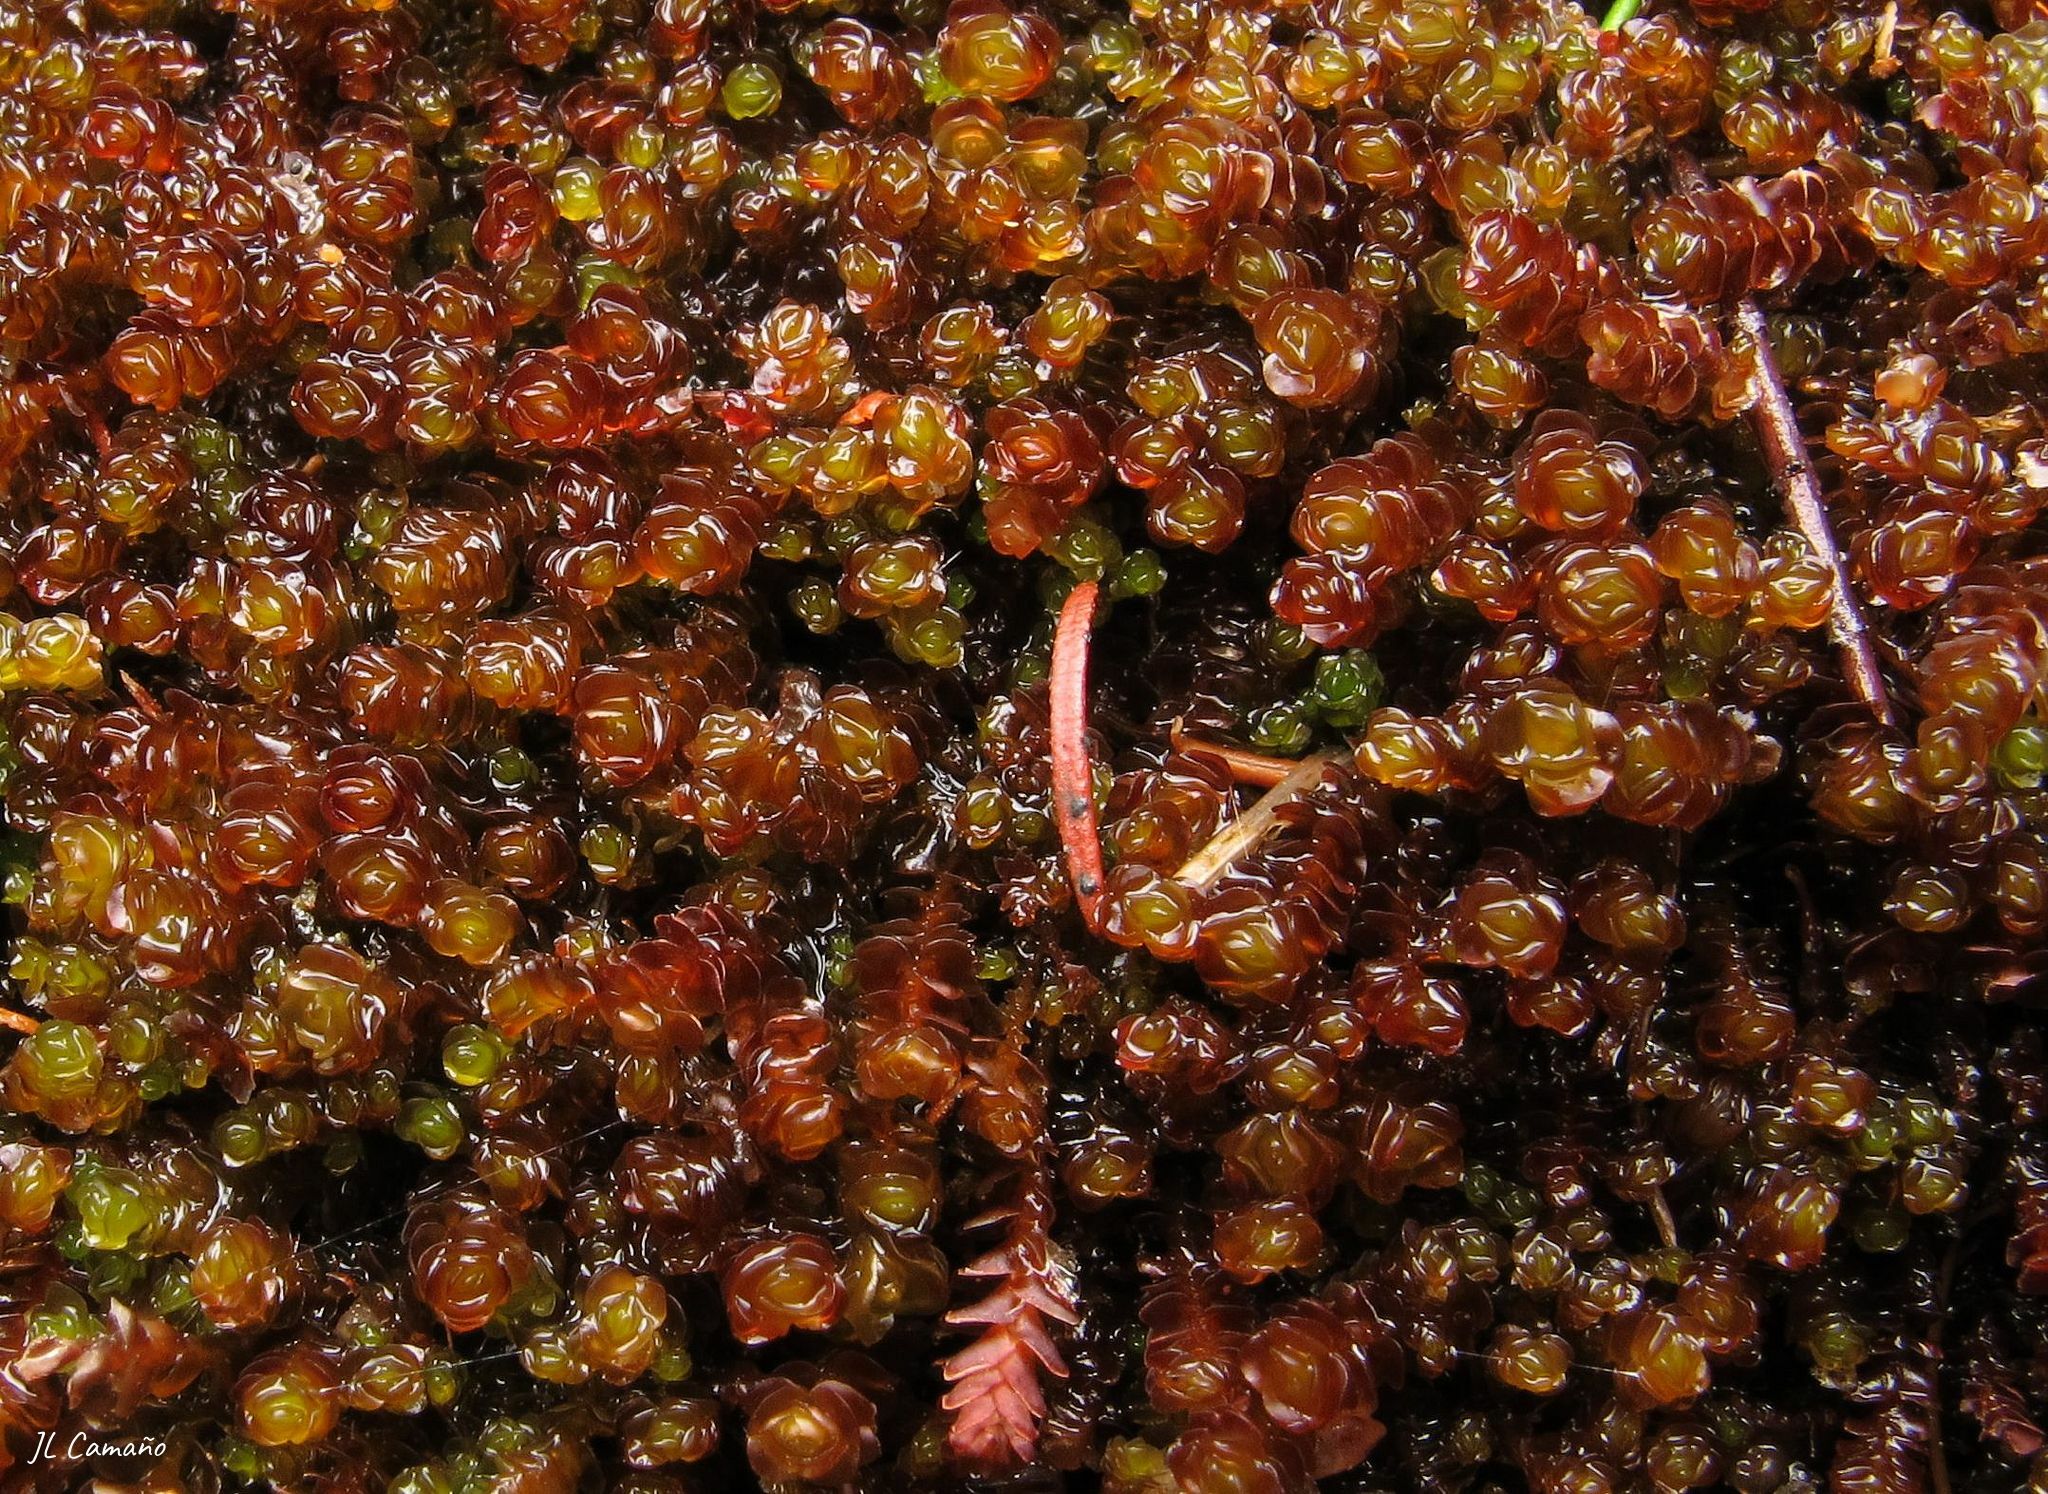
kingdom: Plantae
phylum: Marchantiophyta
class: Jungermanniopsida
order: Jungermanniales
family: Scapaniaceae
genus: Scapania
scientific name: Scapania compacta
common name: Thick-set earwort
